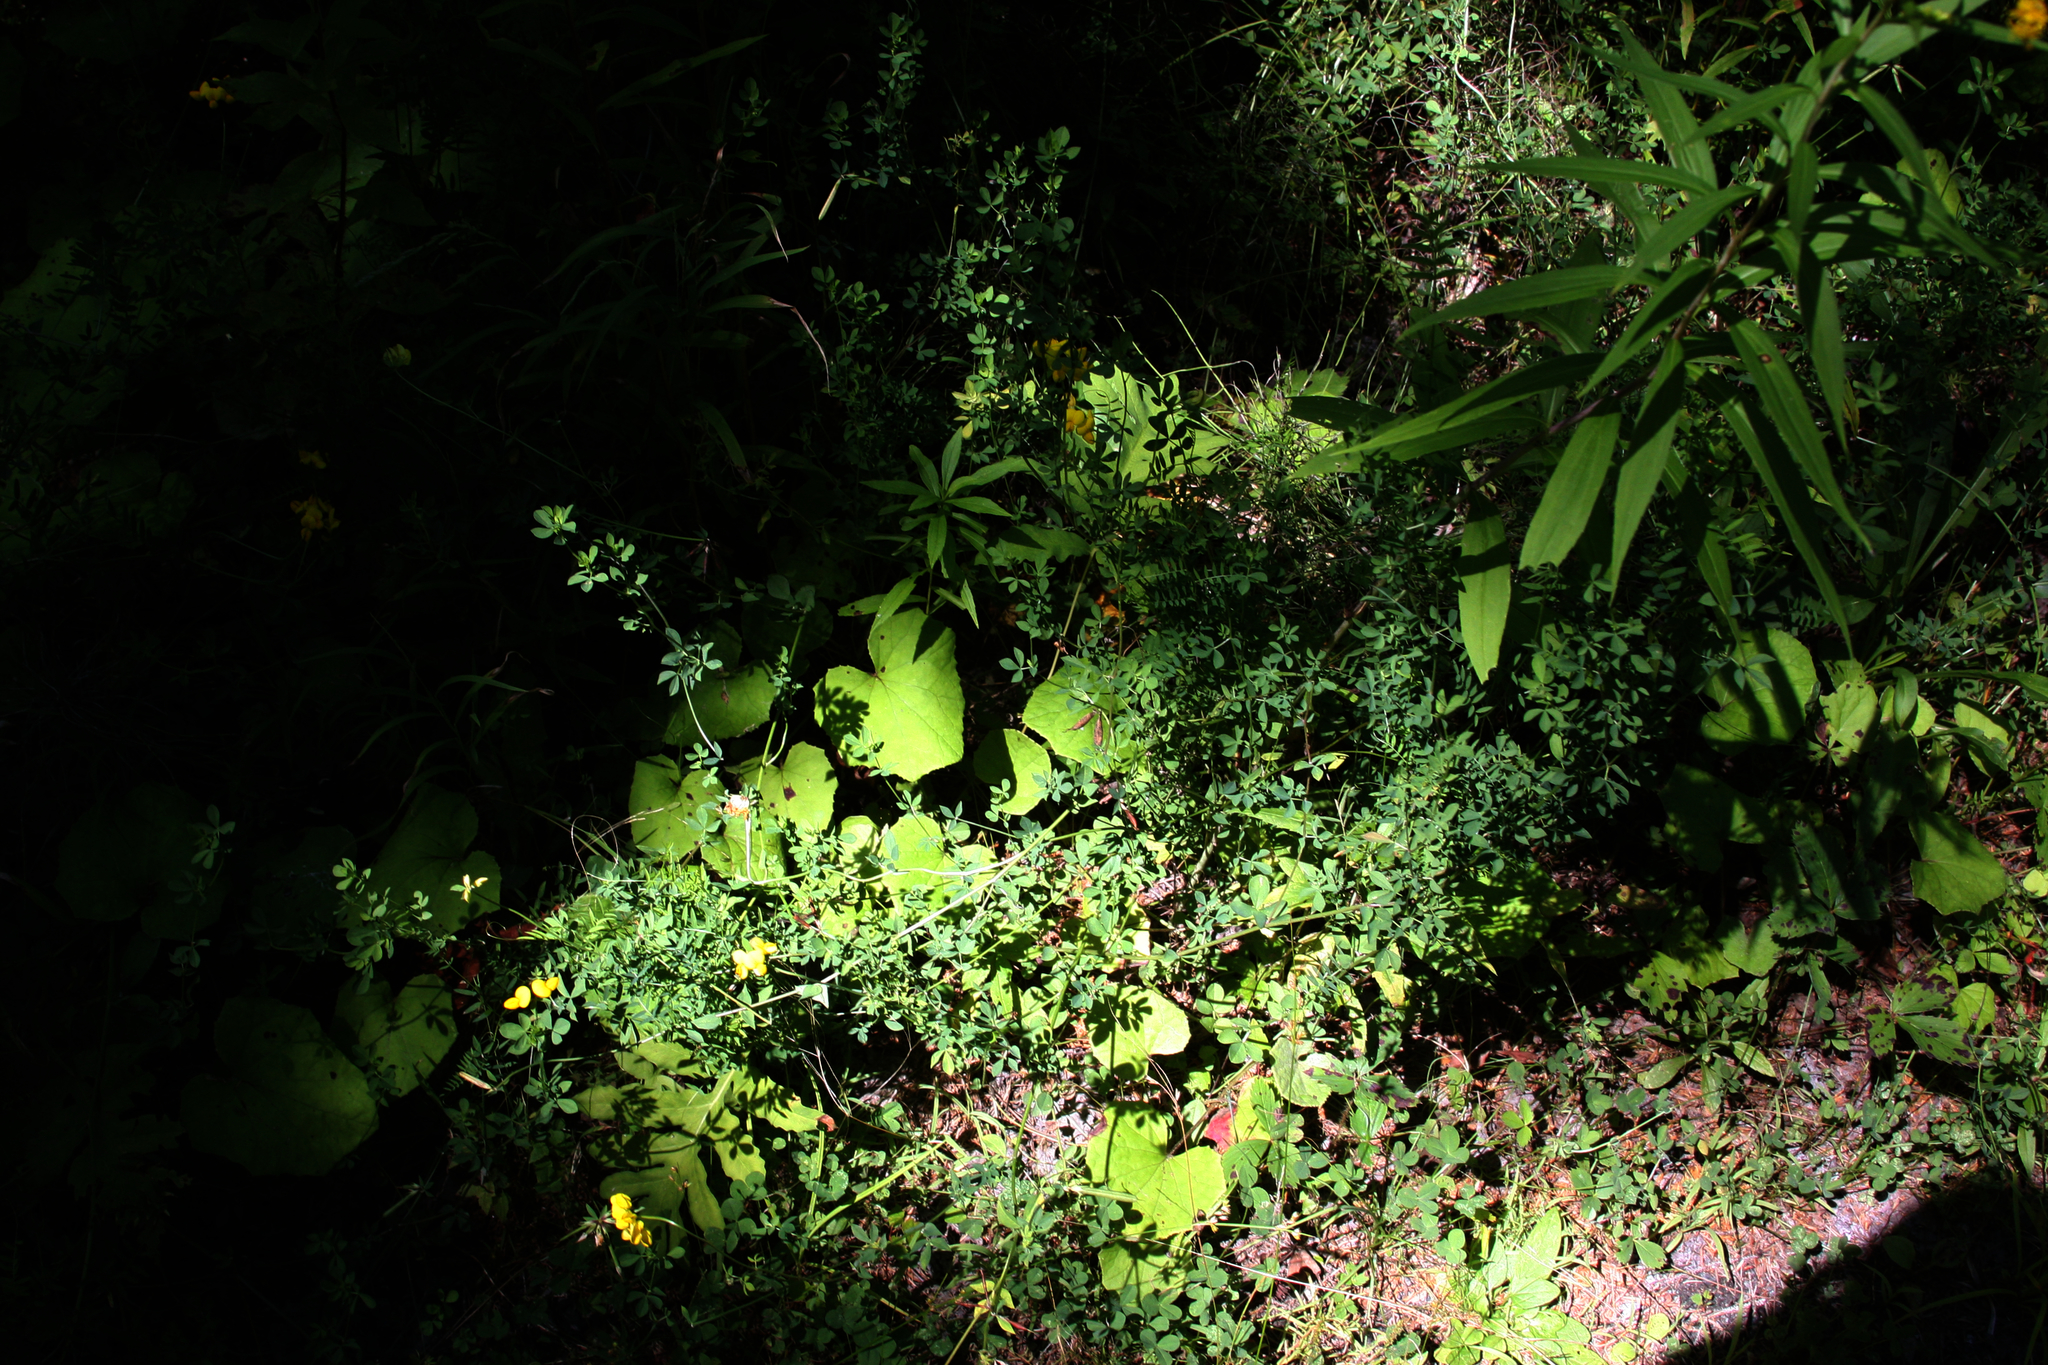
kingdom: Plantae
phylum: Tracheophyta
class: Magnoliopsida
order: Fabales
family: Fabaceae
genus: Lotus
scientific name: Lotus corniculatus
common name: Common bird's-foot-trefoil
